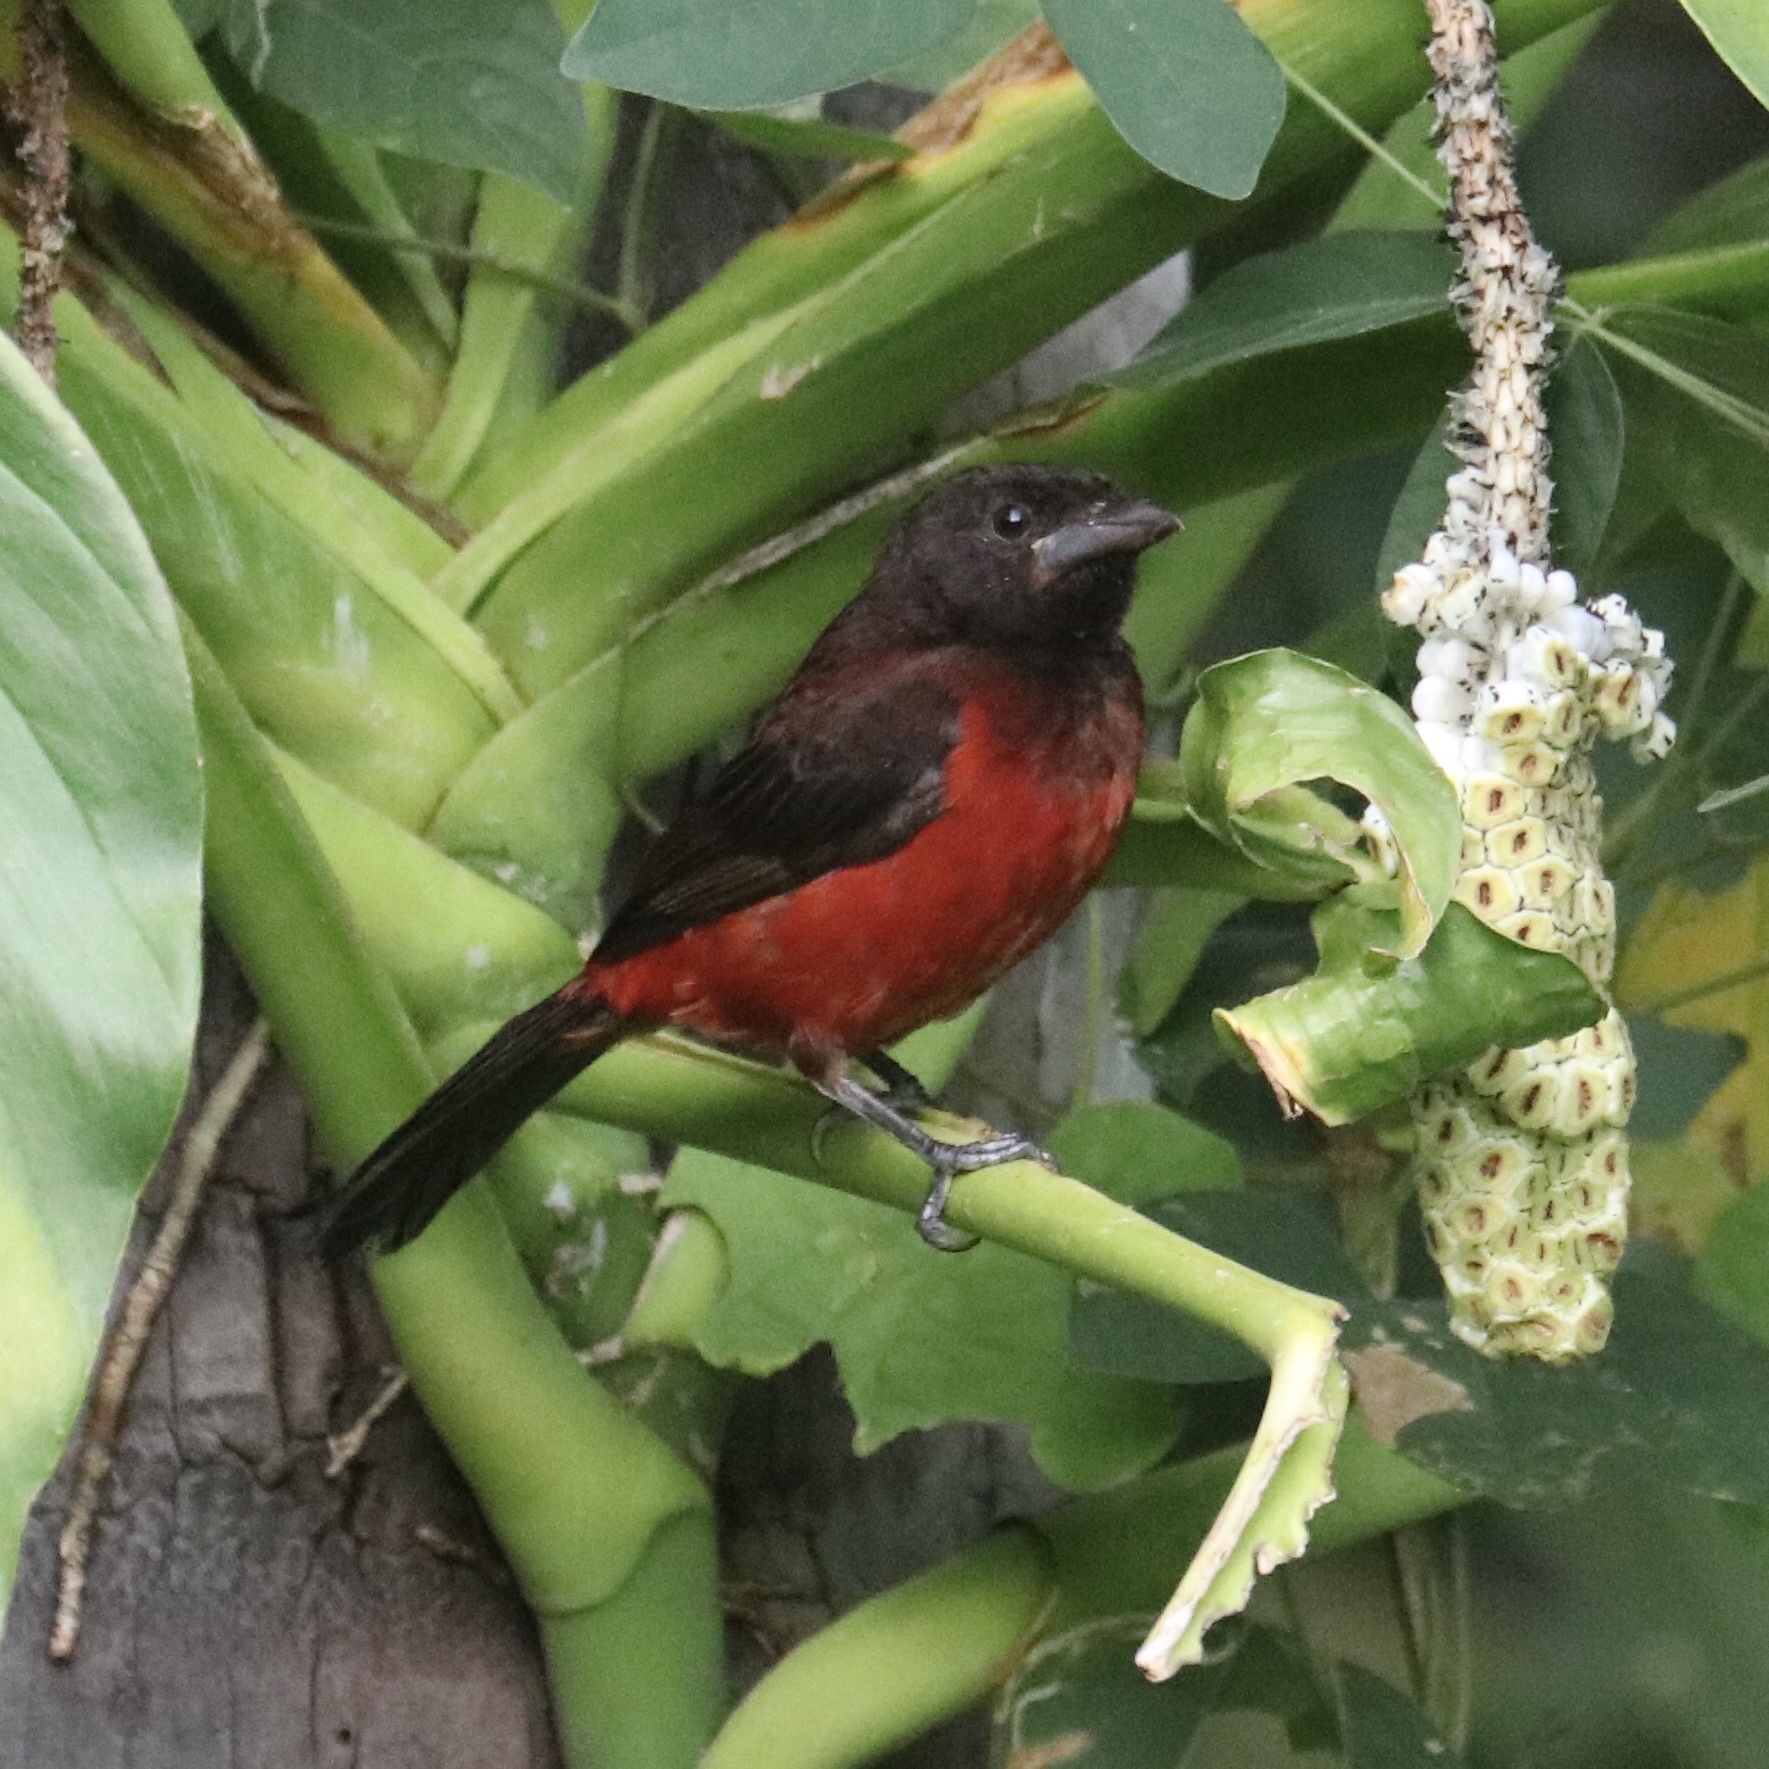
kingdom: Animalia
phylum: Chordata
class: Aves
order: Passeriformes
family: Thraupidae
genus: Ramphocelus
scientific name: Ramphocelus dimidiatus
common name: Crimson-backed tanager
